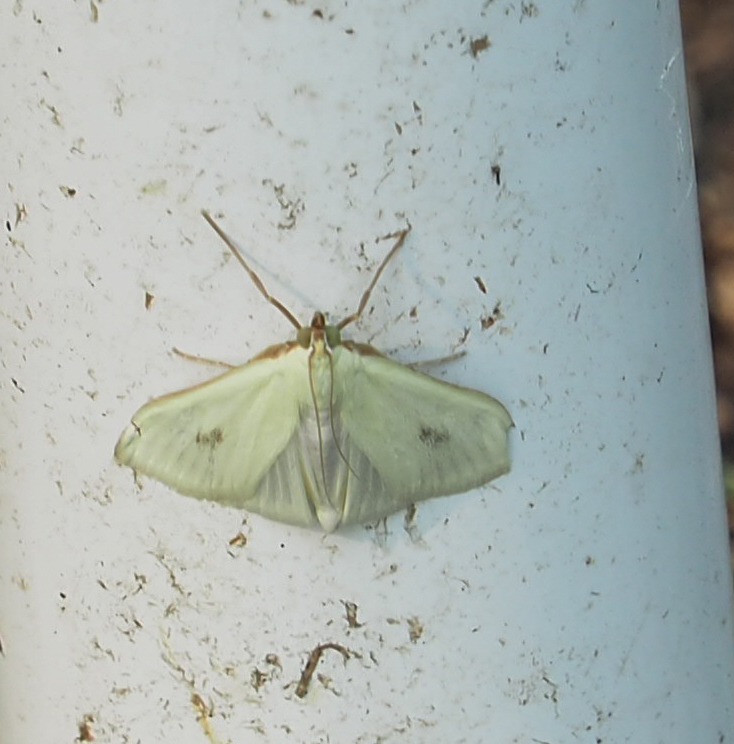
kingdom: Animalia
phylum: Arthropoda
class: Insecta
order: Lepidoptera
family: Crambidae
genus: Sitochroa
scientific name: Sitochroa palealis
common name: Greenish-yellow sitochroa moth
